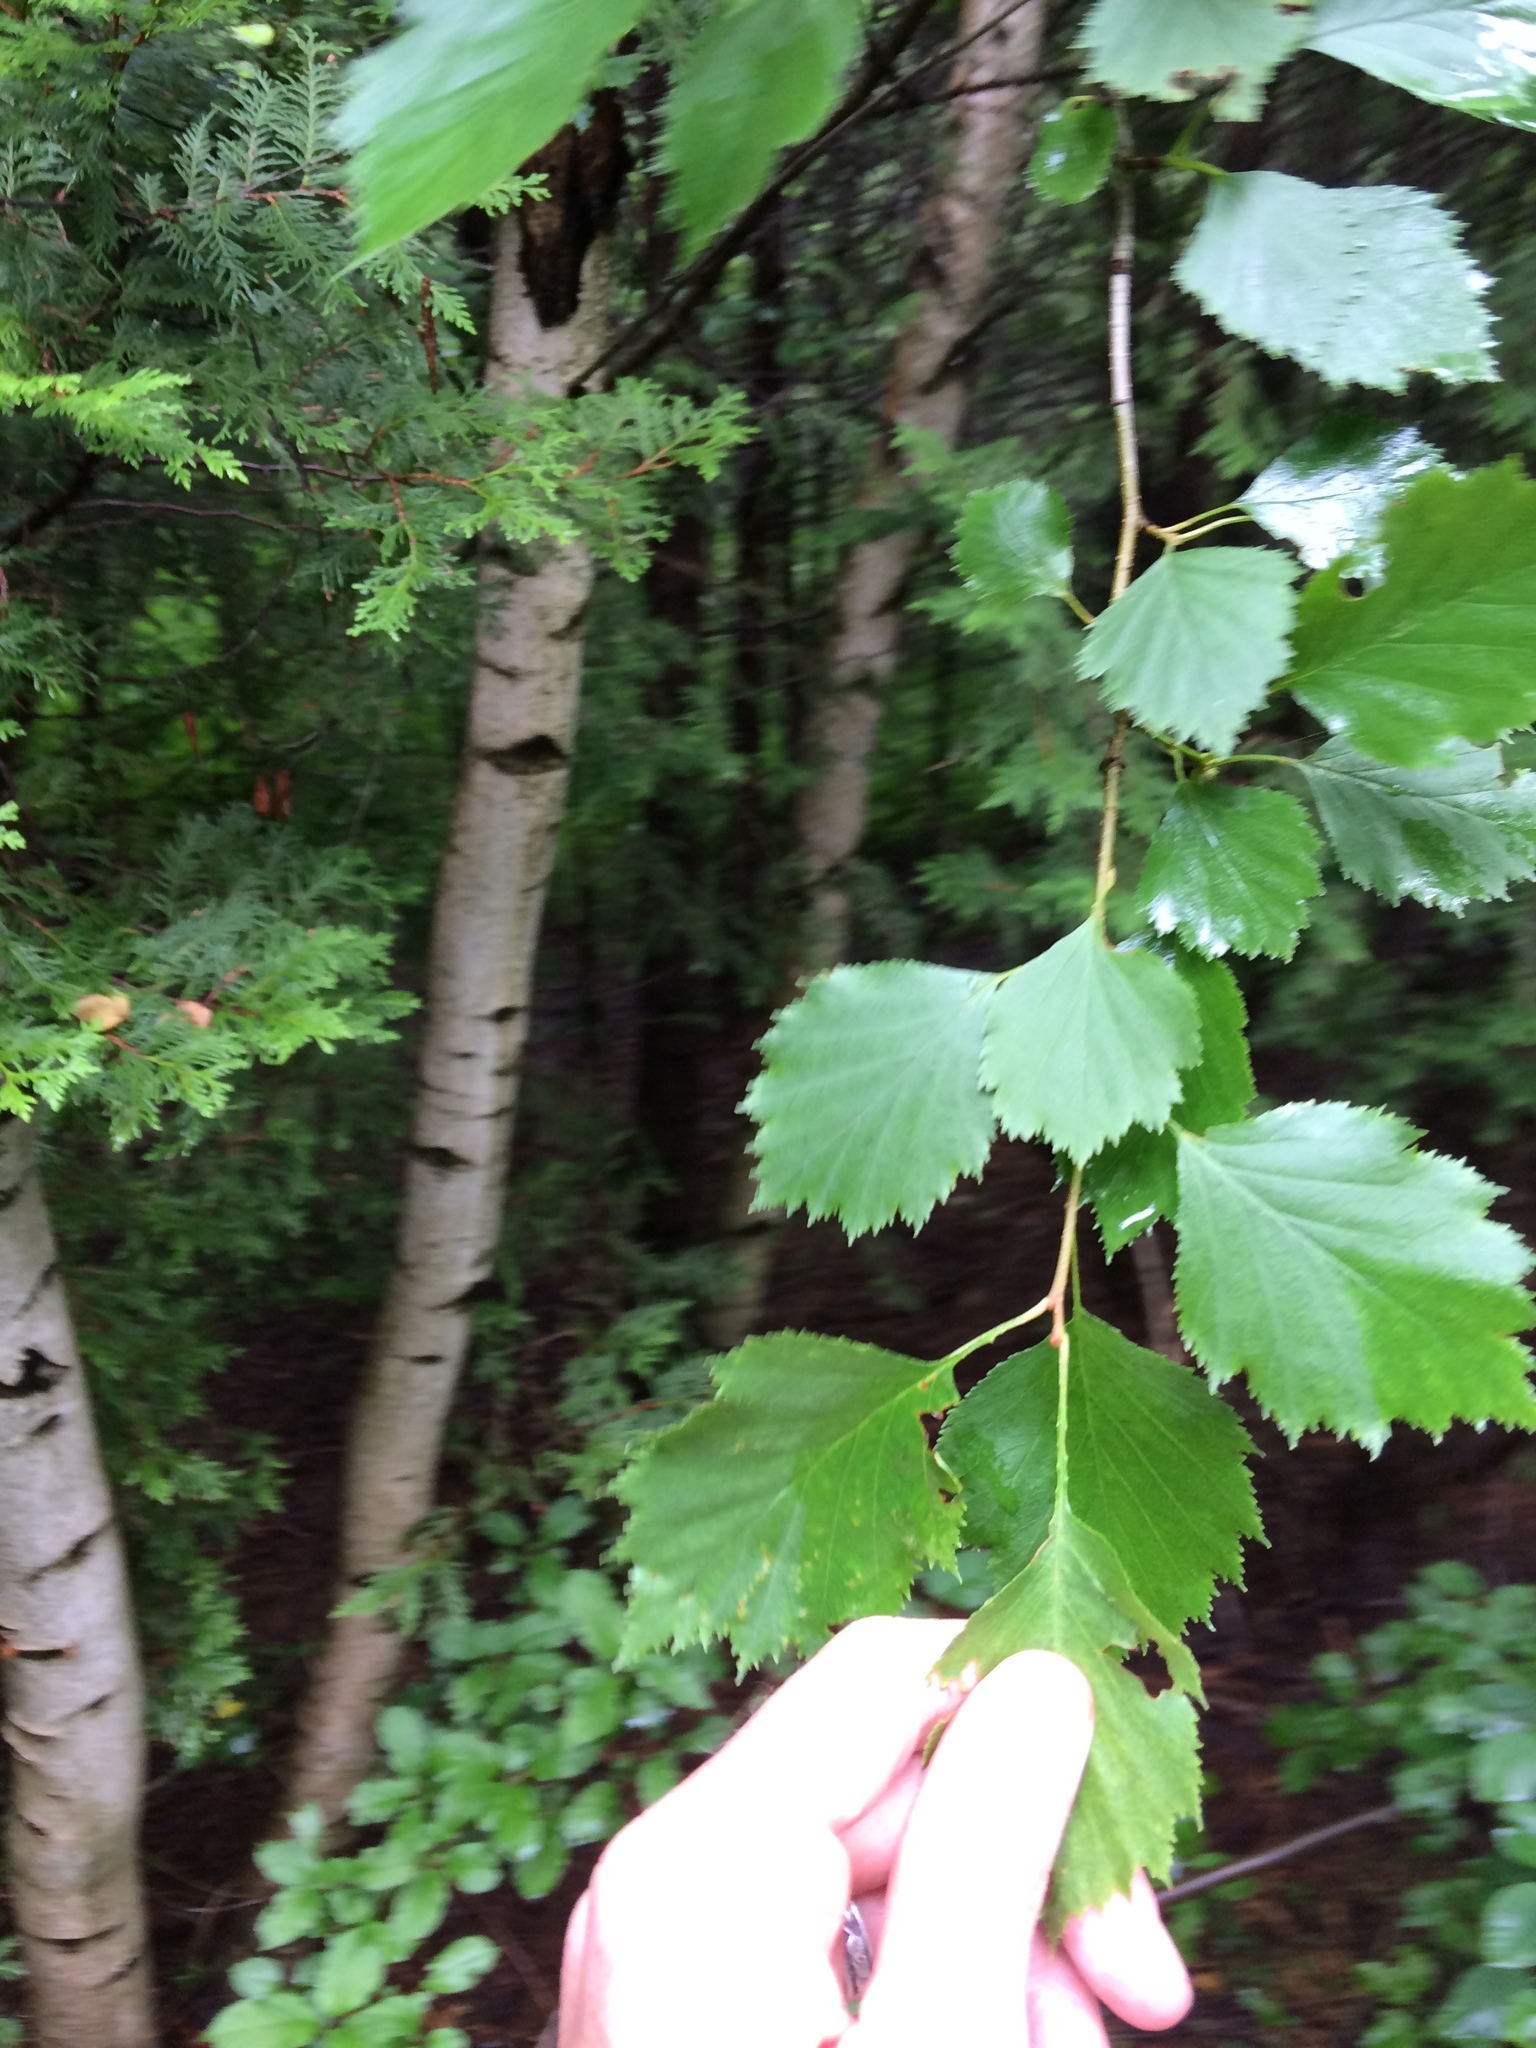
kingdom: Plantae
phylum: Tracheophyta
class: Magnoliopsida
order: Rosales
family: Rosaceae
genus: Crataegus
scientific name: Crataegus
